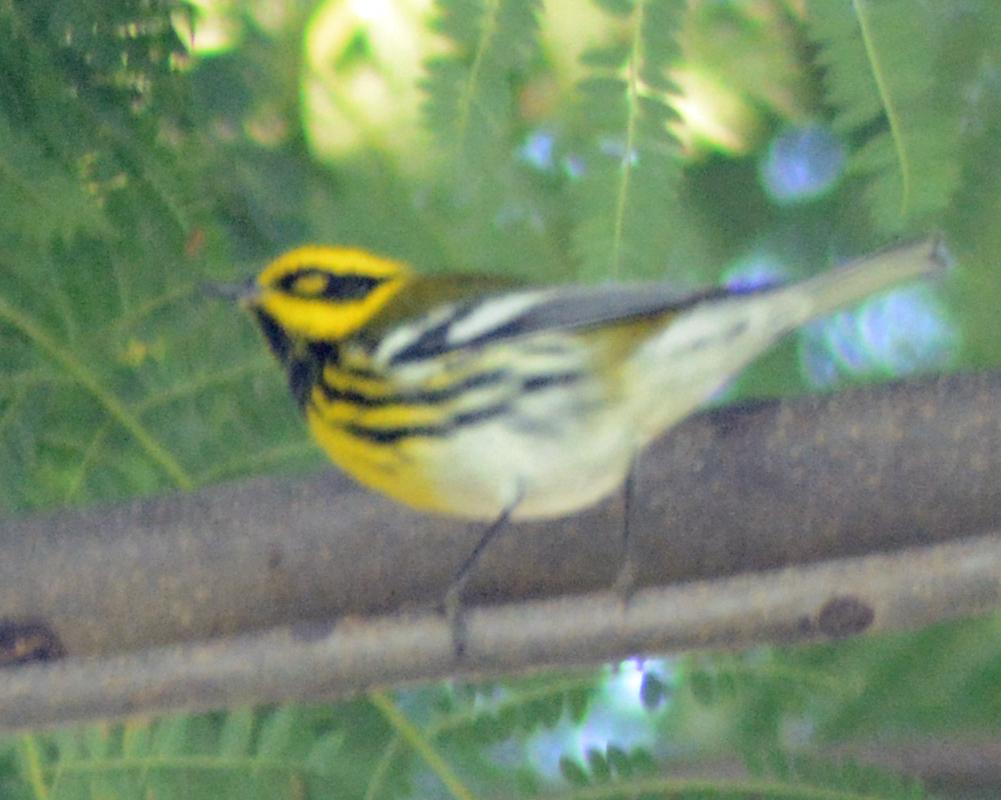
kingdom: Animalia
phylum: Chordata
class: Aves
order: Passeriformes
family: Parulidae
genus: Setophaga
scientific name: Setophaga townsendi
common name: Townsend's warbler
